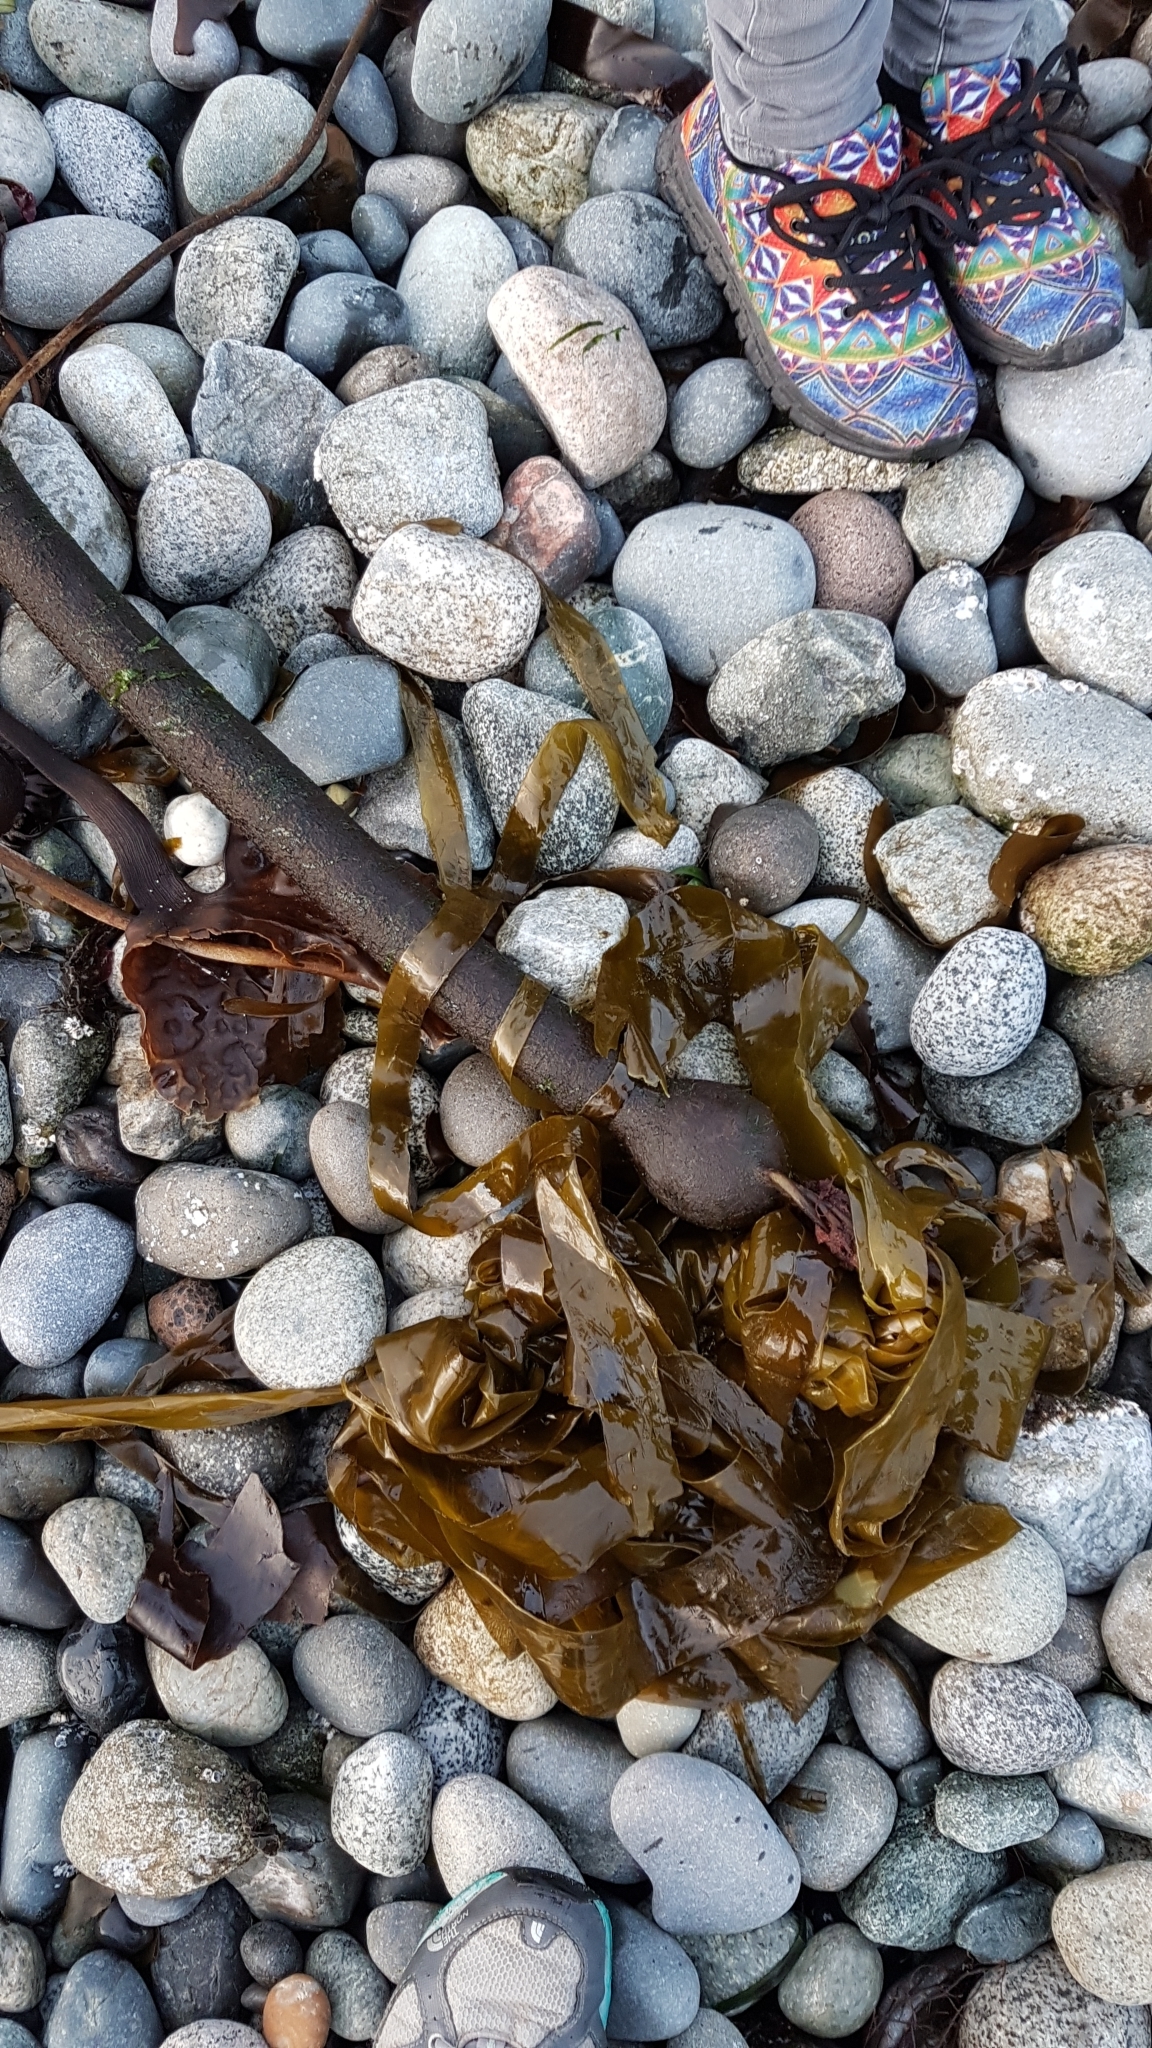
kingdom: Chromista
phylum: Ochrophyta
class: Phaeophyceae
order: Laminariales
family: Laminariaceae
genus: Nereocystis
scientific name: Nereocystis luetkeana
